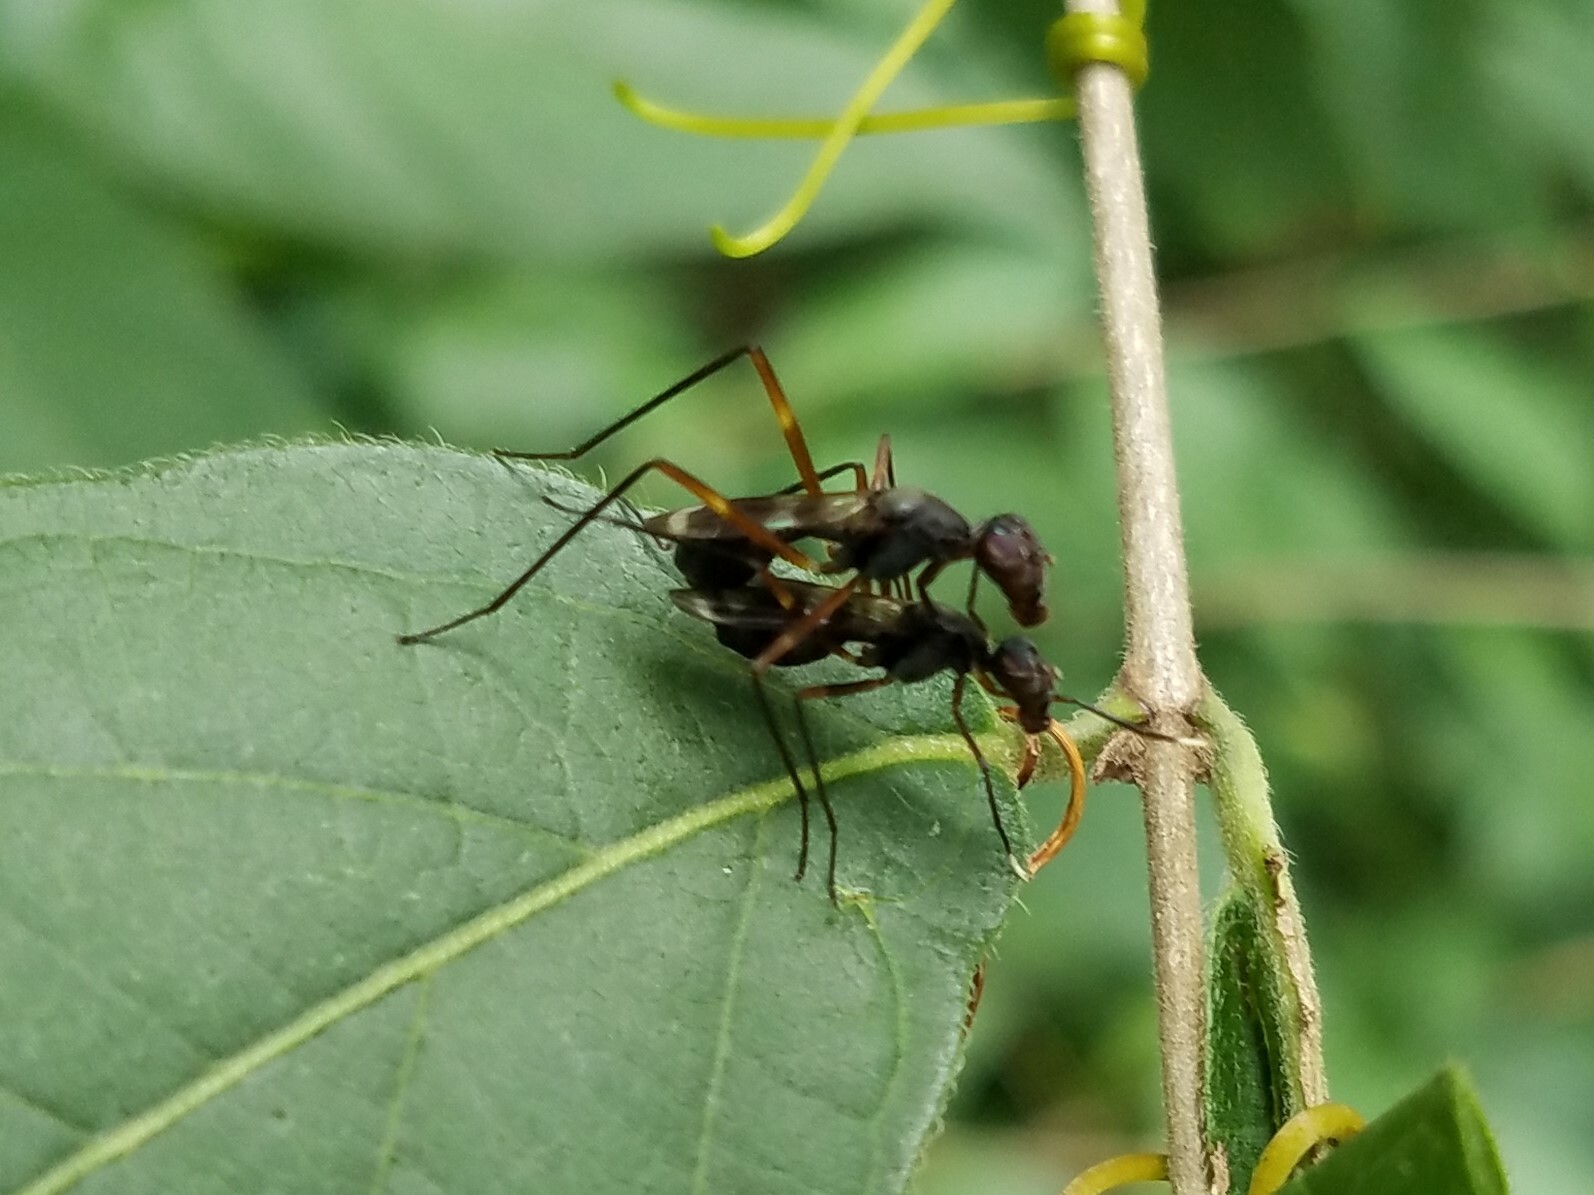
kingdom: Animalia
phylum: Arthropoda
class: Insecta
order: Diptera
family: Micropezidae
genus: Taeniaptera
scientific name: Taeniaptera trivittata
